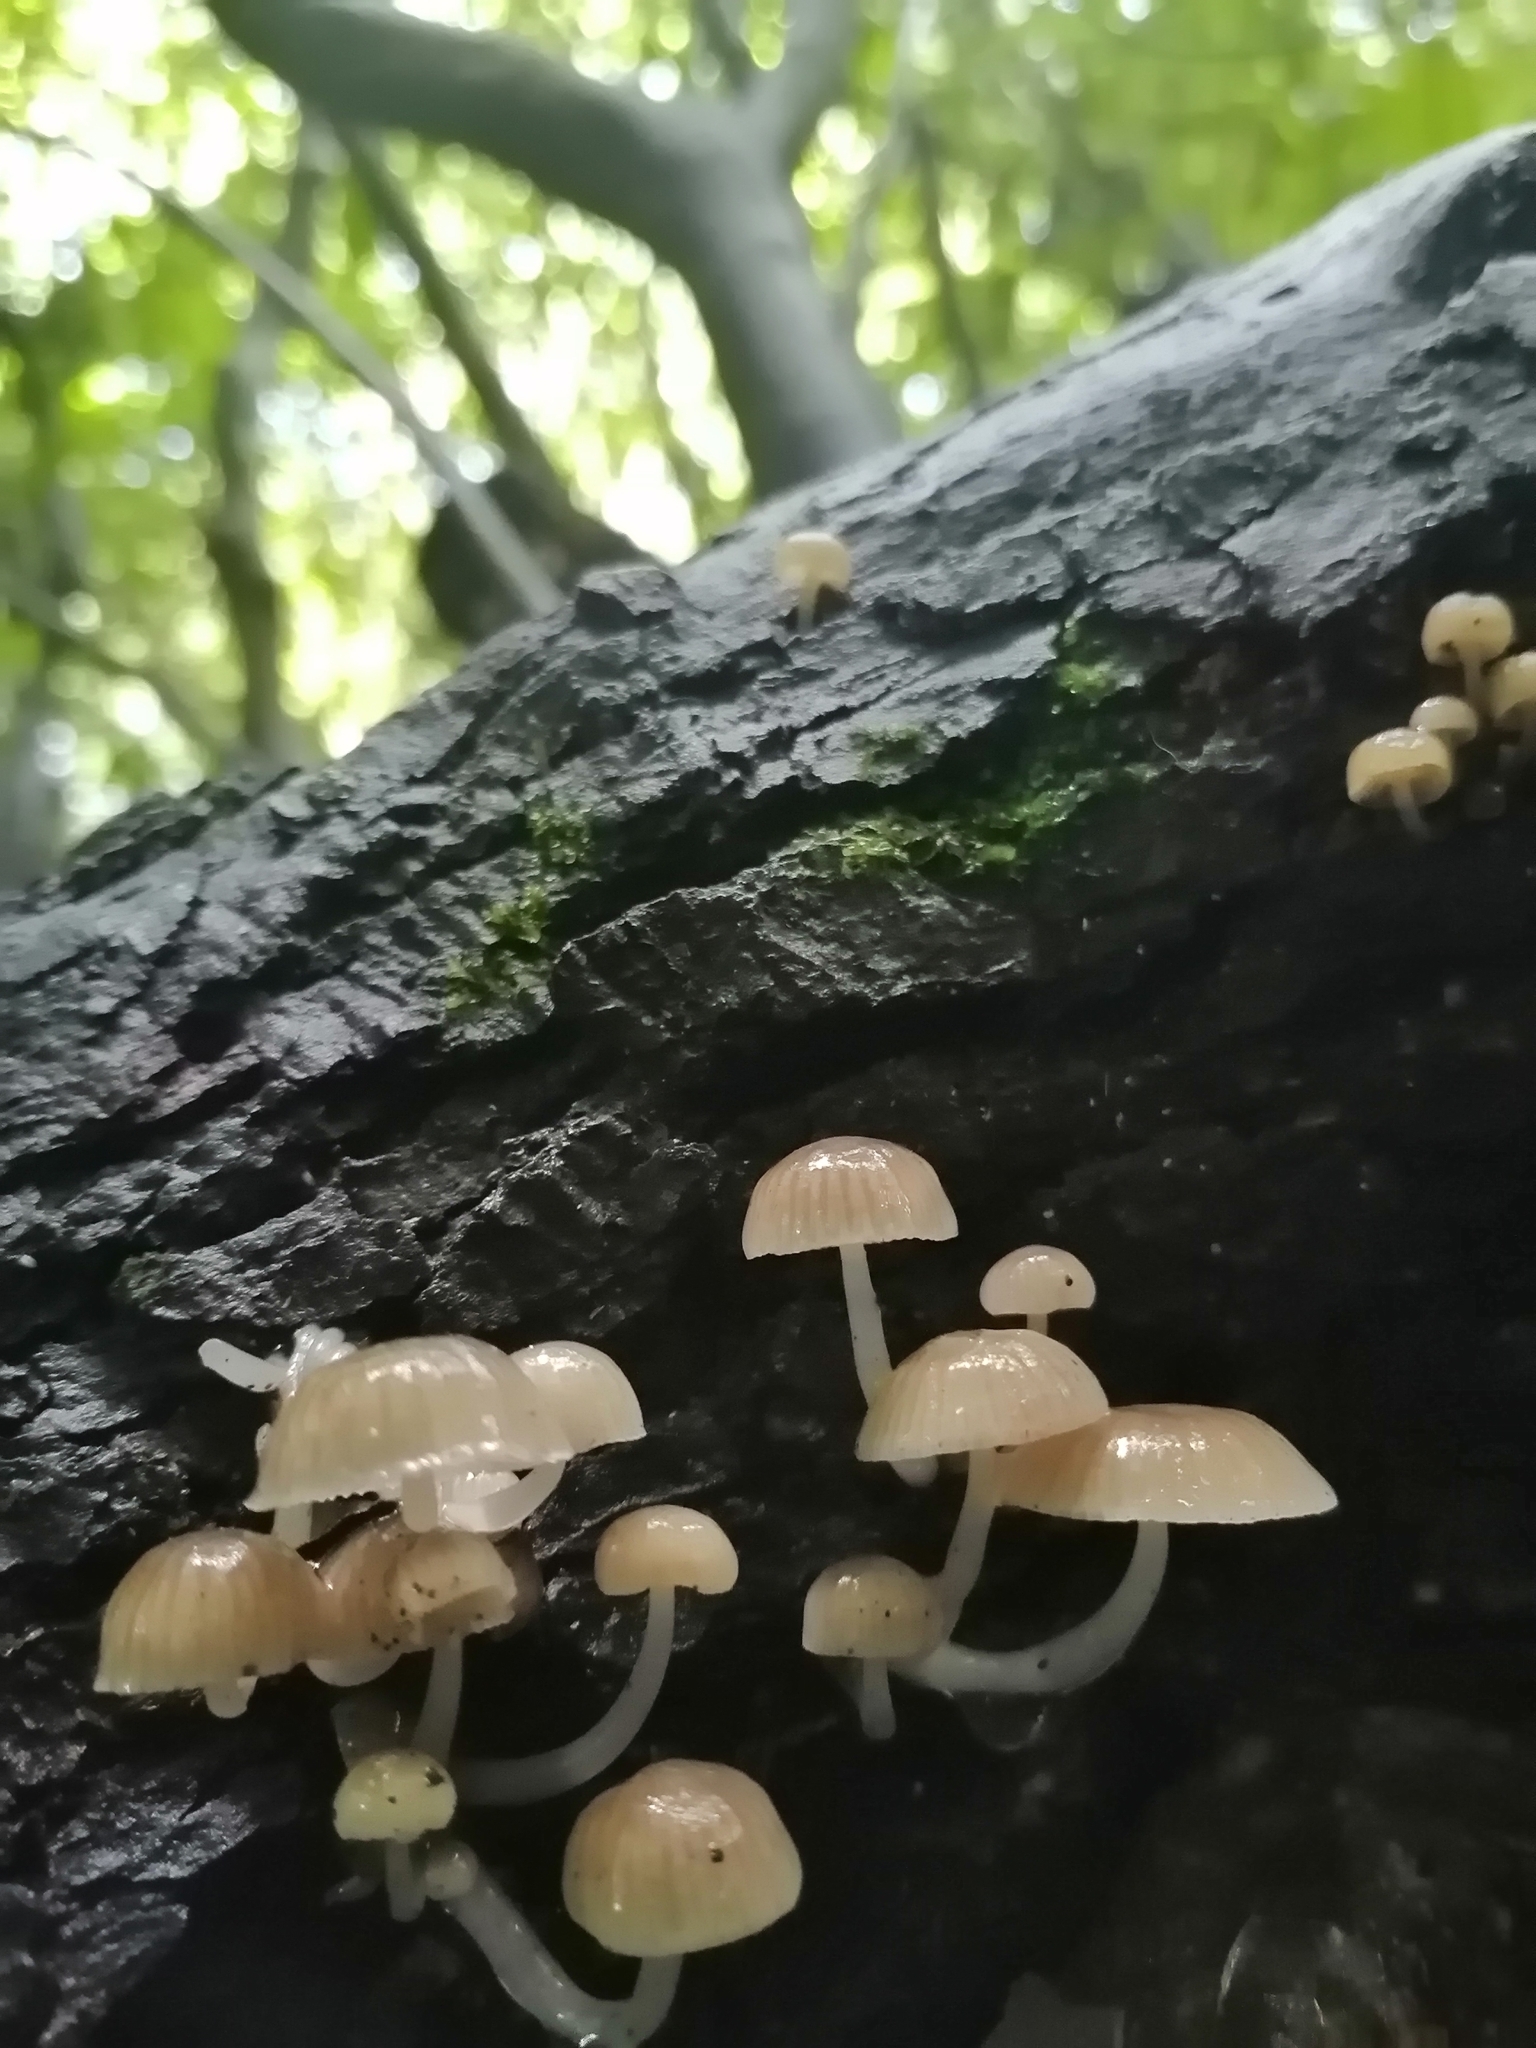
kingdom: Fungi
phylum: Basidiomycota
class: Agaricomycetes
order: Agaricales
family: Mycenaceae
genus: Roridomyces
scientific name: Roridomyces austrororidus
